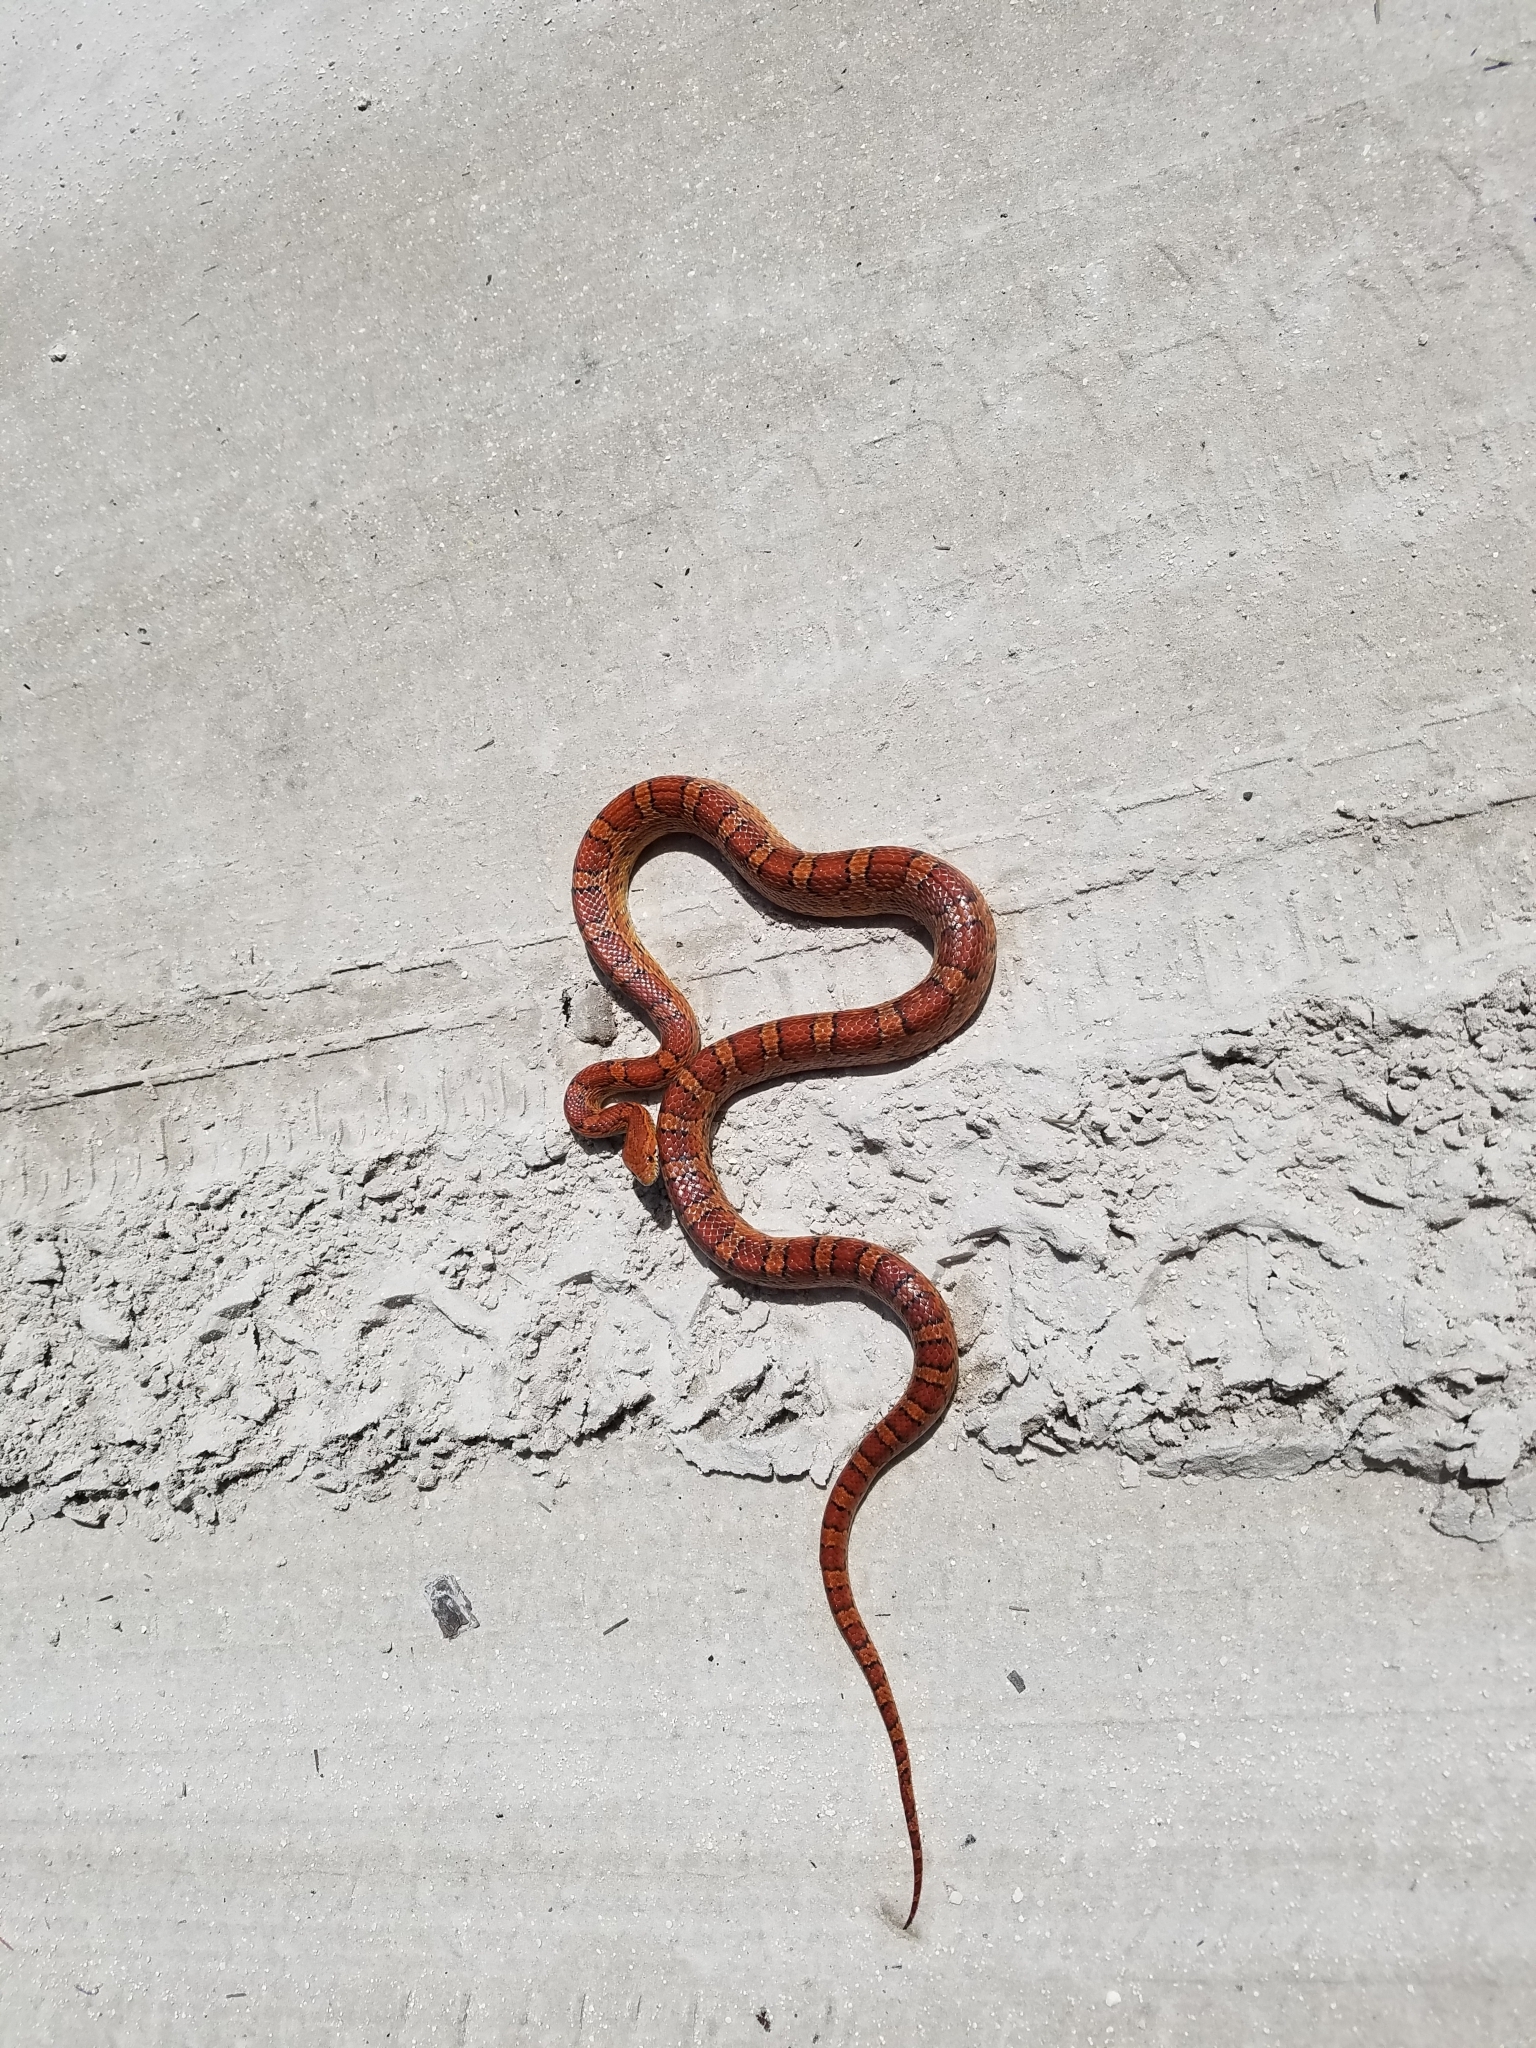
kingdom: Animalia
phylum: Chordata
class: Squamata
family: Colubridae
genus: Pantherophis
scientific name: Pantherophis guttatus
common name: Red cornsnake
